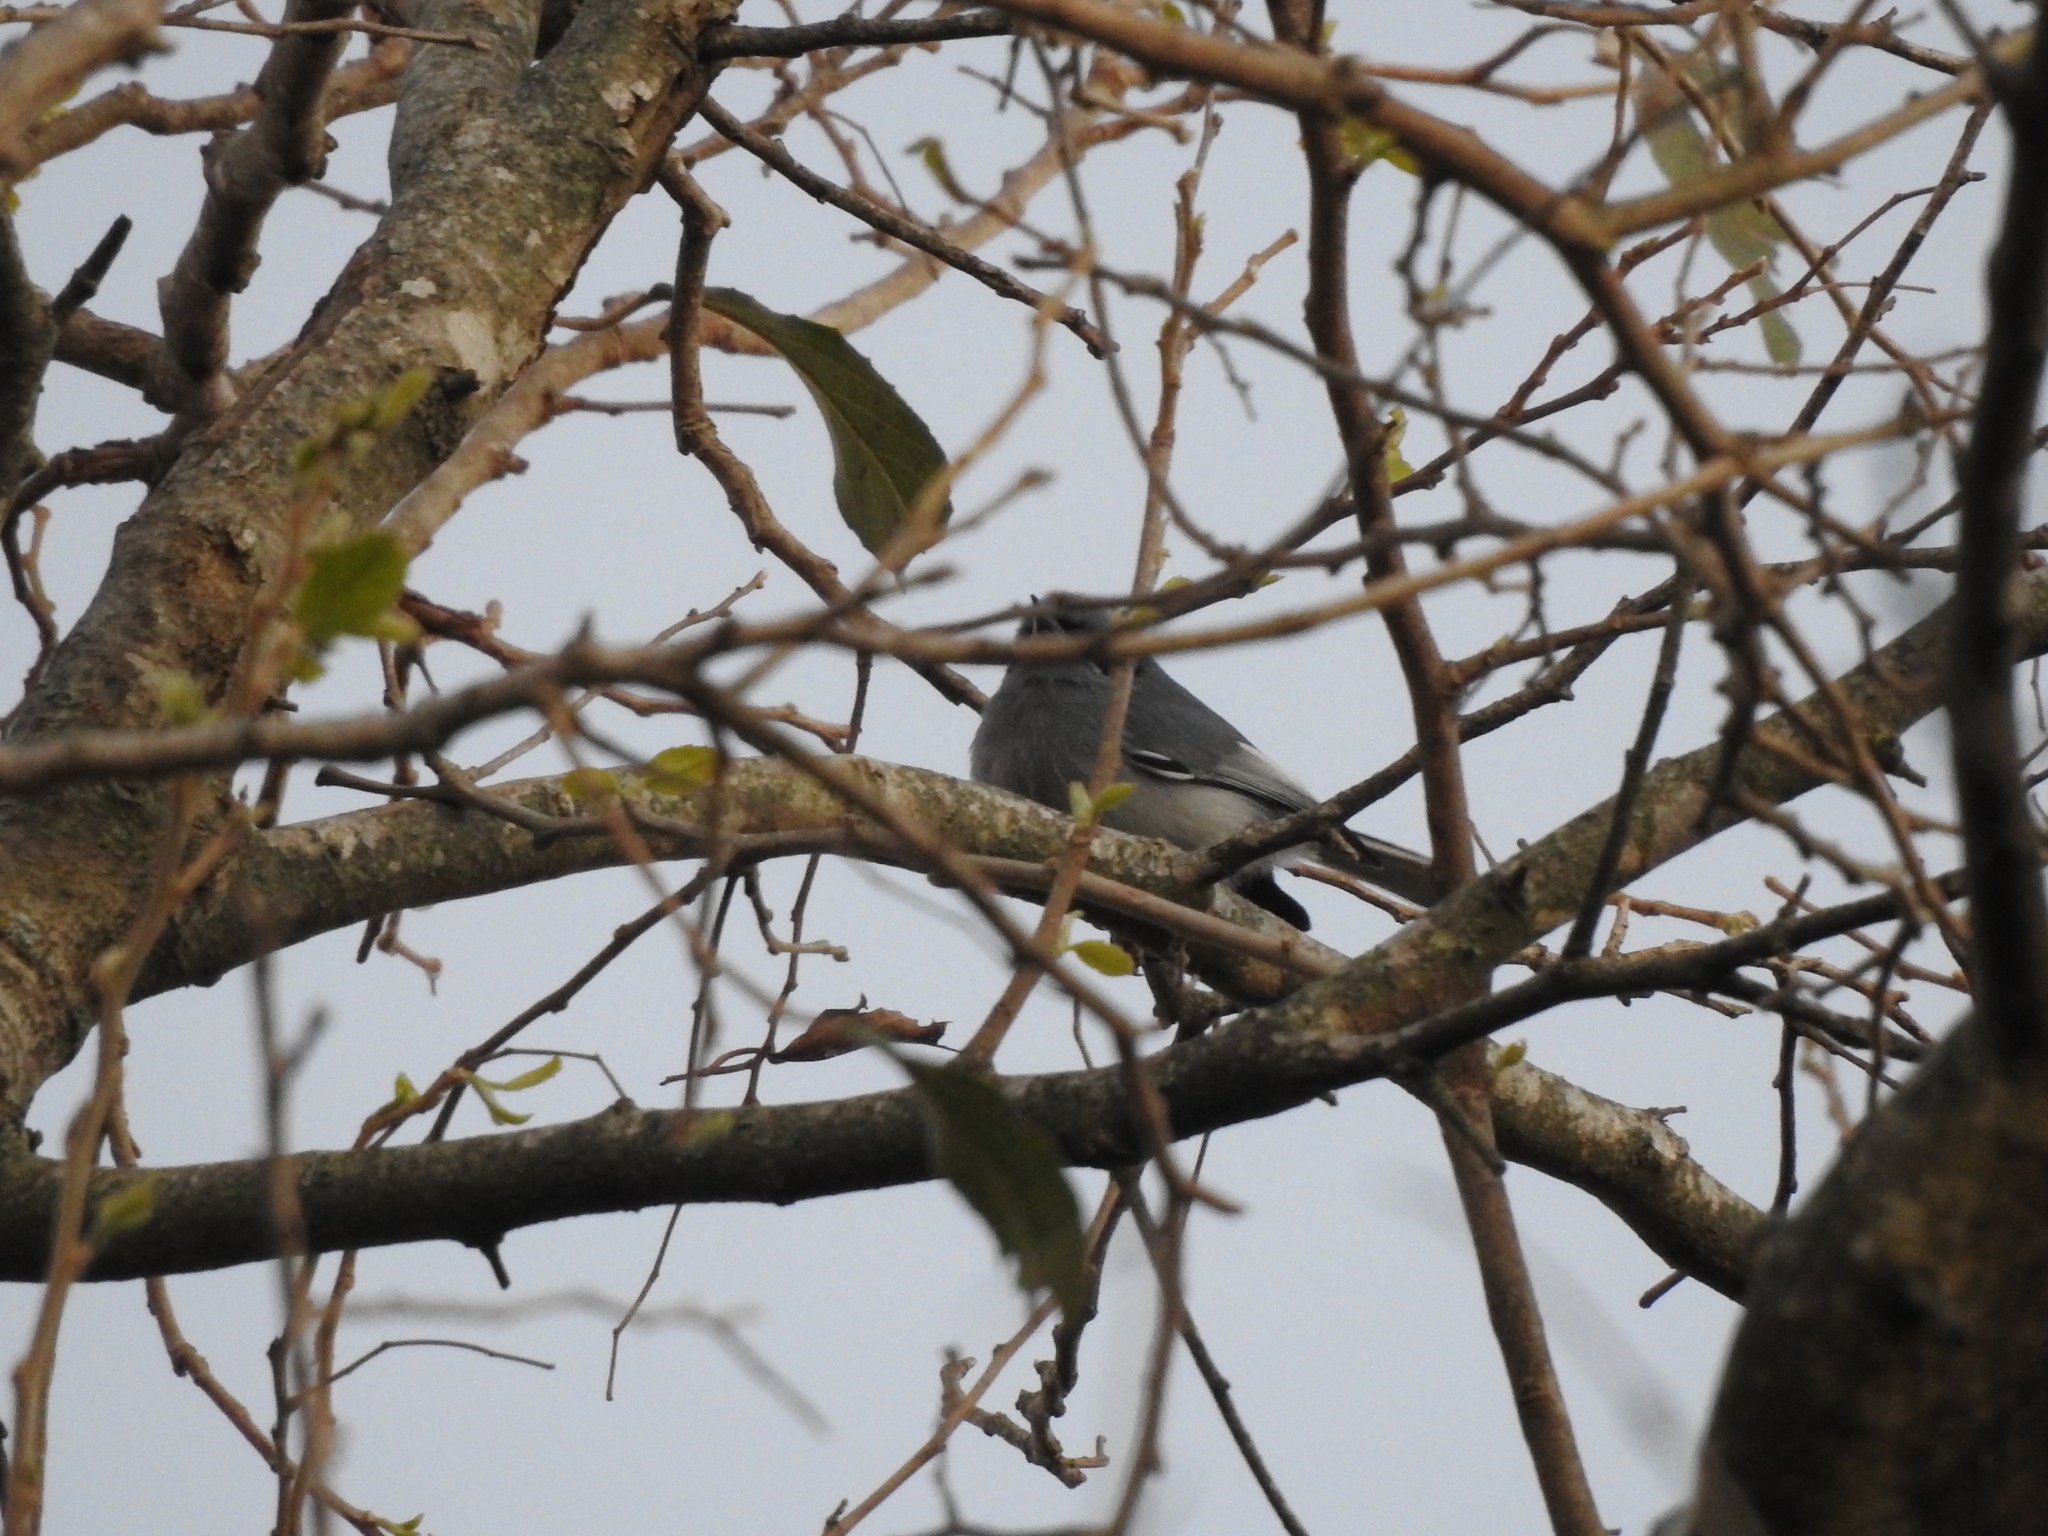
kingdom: Animalia
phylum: Chordata
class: Aves
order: Passeriformes
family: Polioptilidae
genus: Polioptila
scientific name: Polioptila dumicola
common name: Masked gnatcatcher
